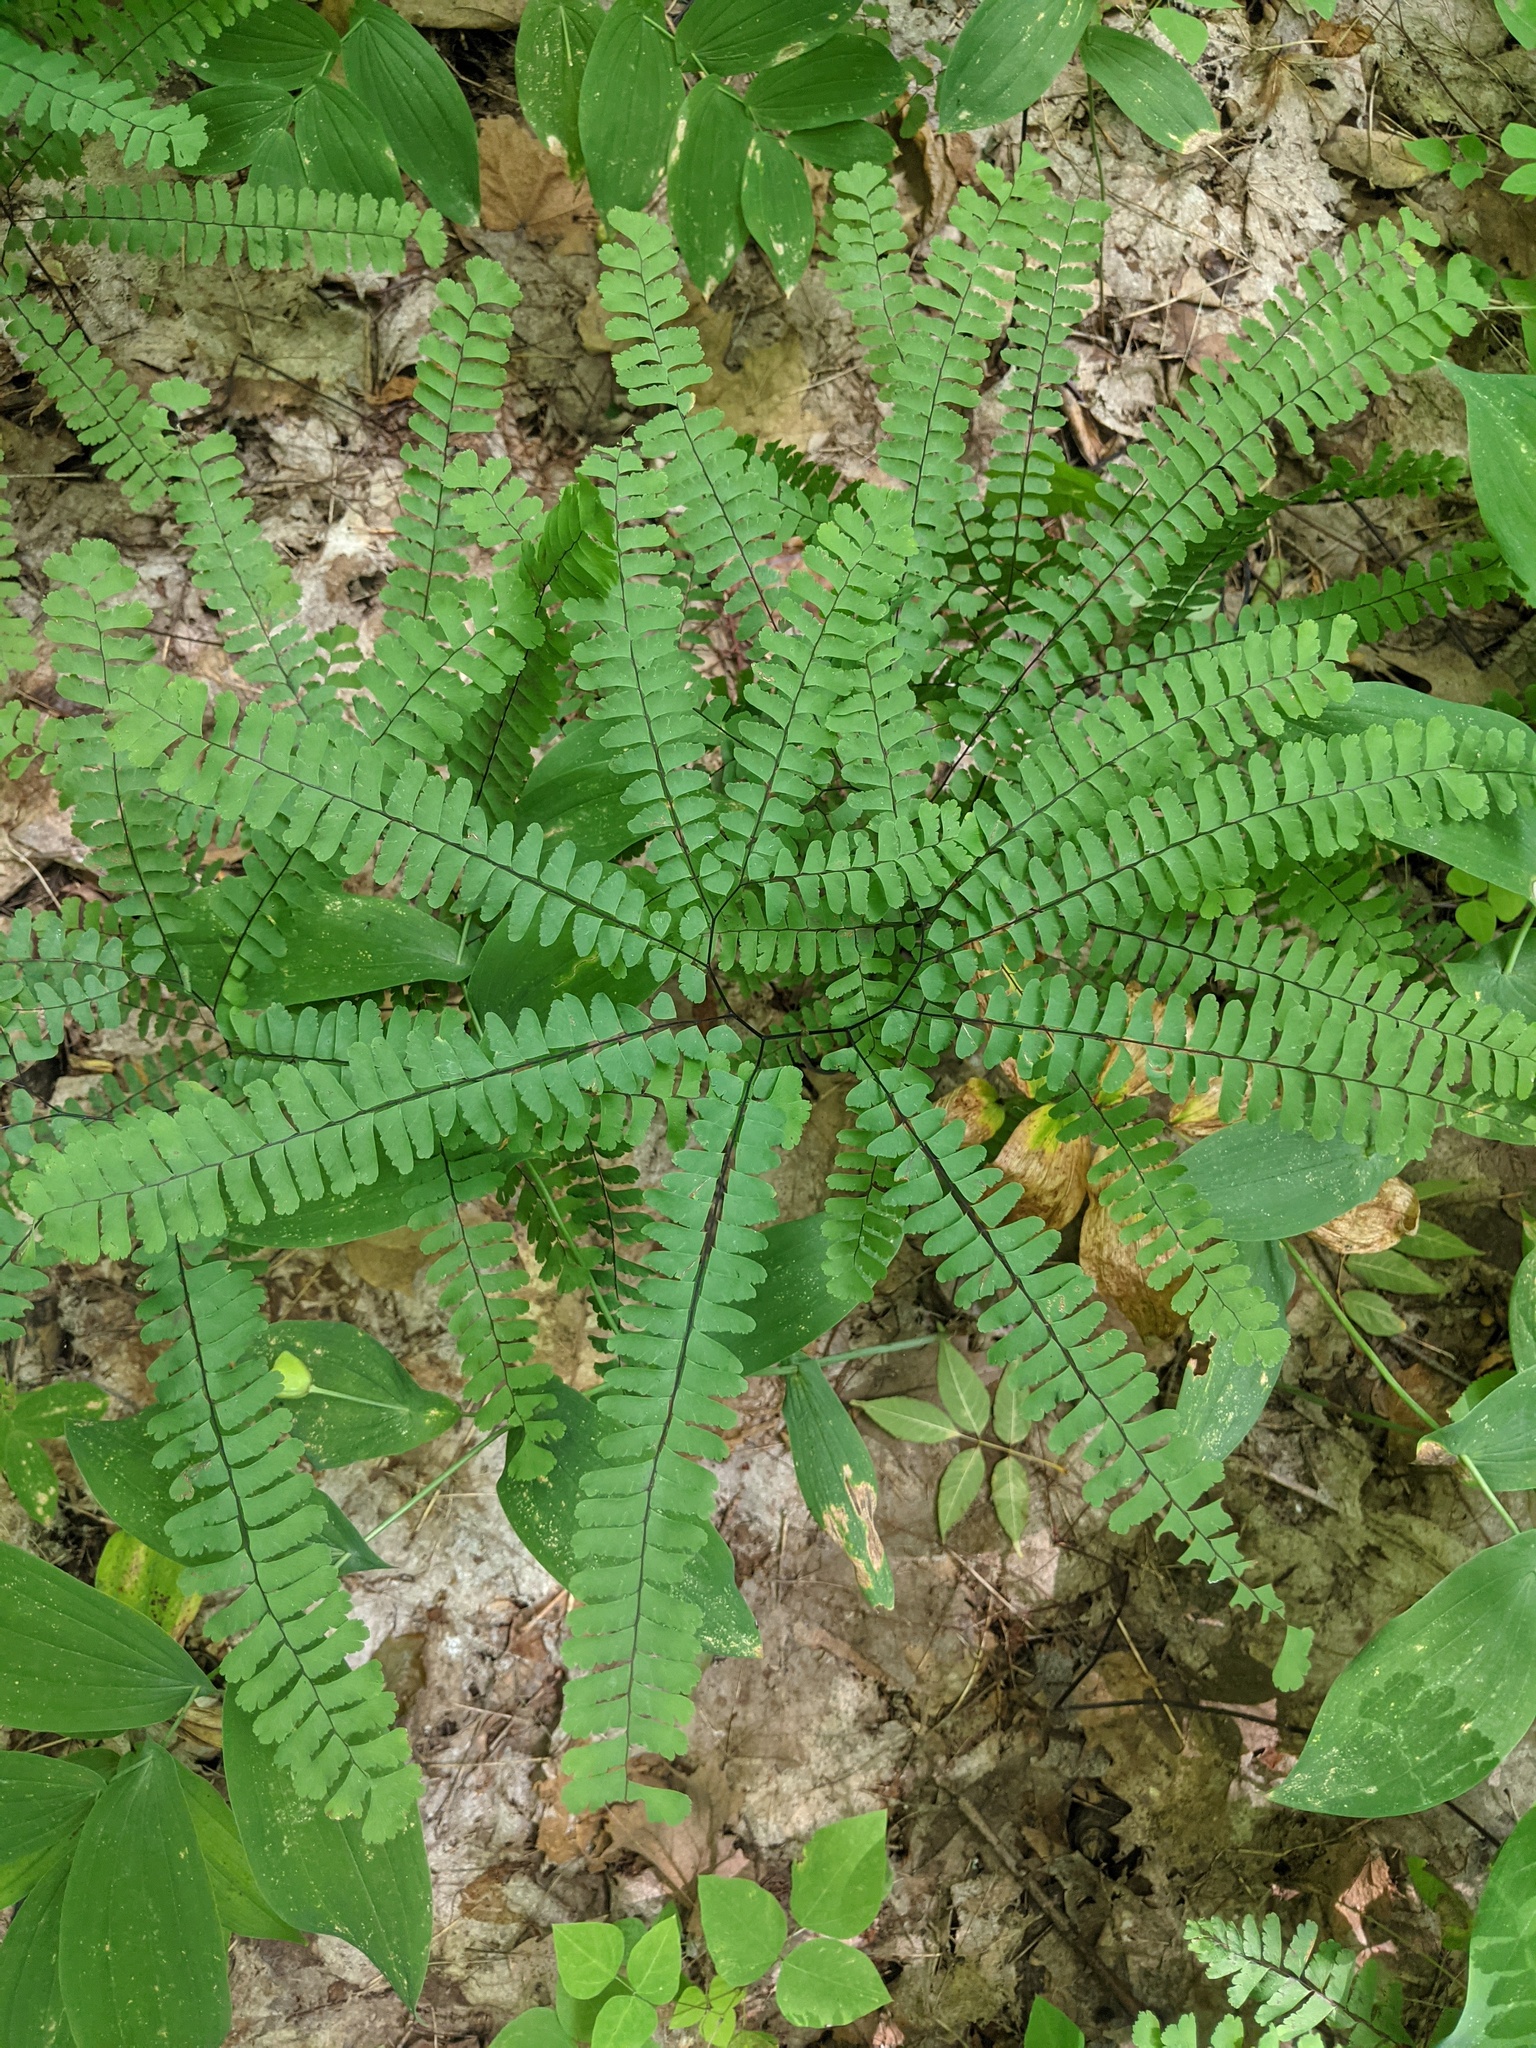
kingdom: Plantae
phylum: Tracheophyta
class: Polypodiopsida
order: Polypodiales
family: Pteridaceae
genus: Adiantum
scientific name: Adiantum pedatum
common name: Five-finger fern
